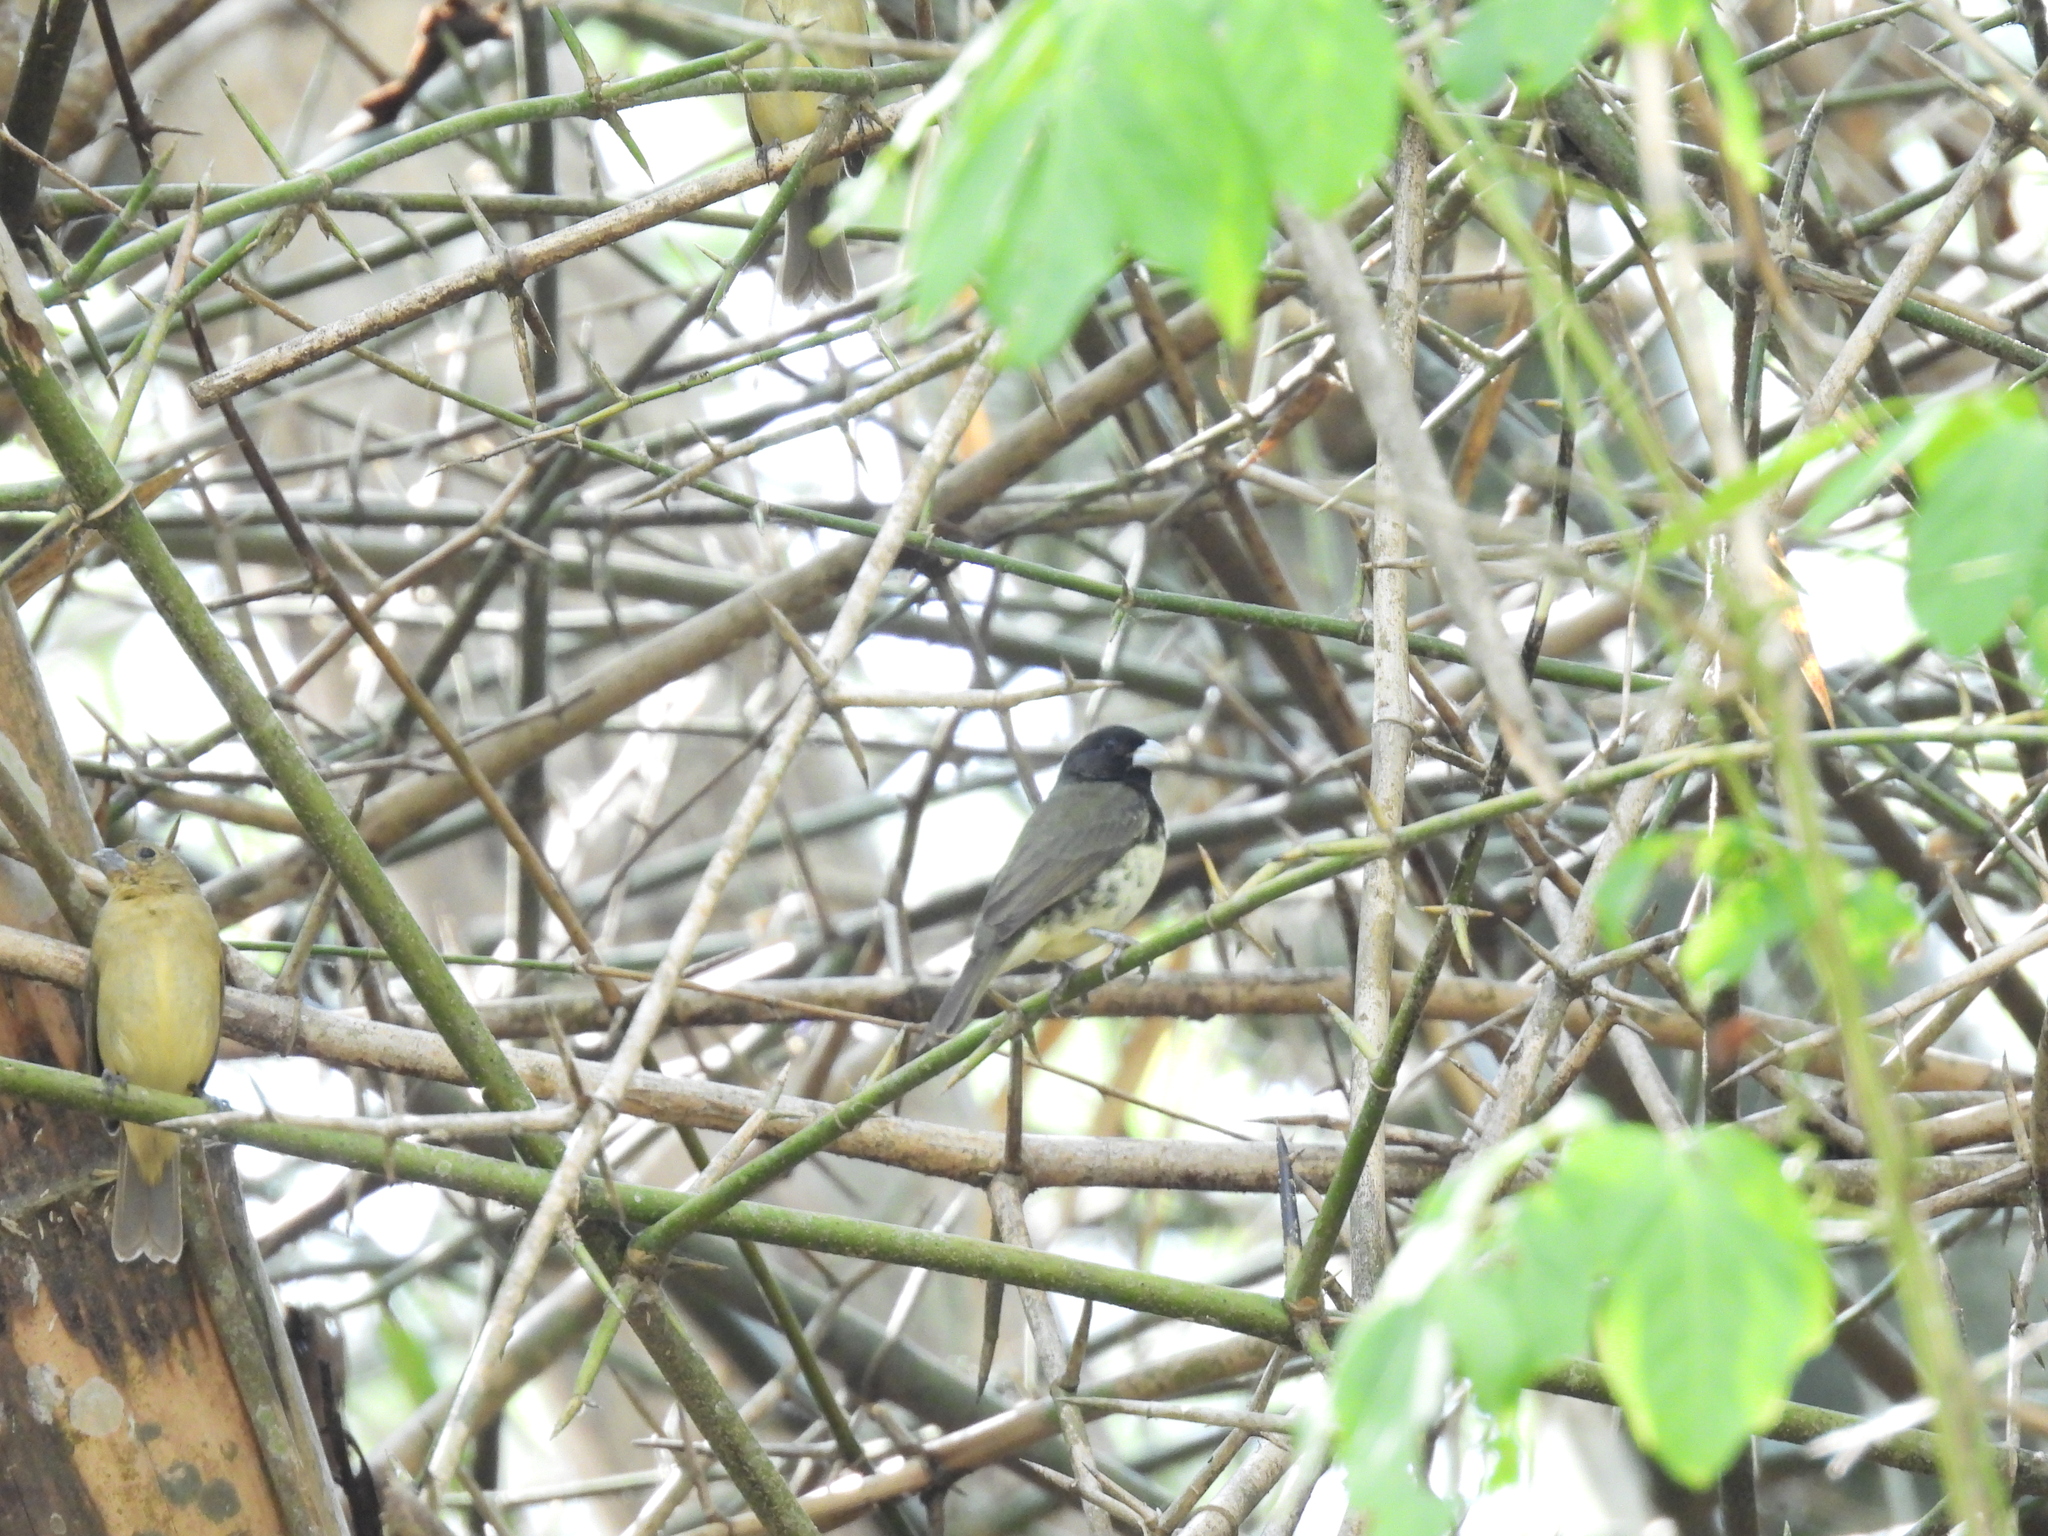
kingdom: Animalia
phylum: Chordata
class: Aves
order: Passeriformes
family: Thraupidae
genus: Sporophila
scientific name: Sporophila nigricollis
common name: Yellow-bellied seedeater
